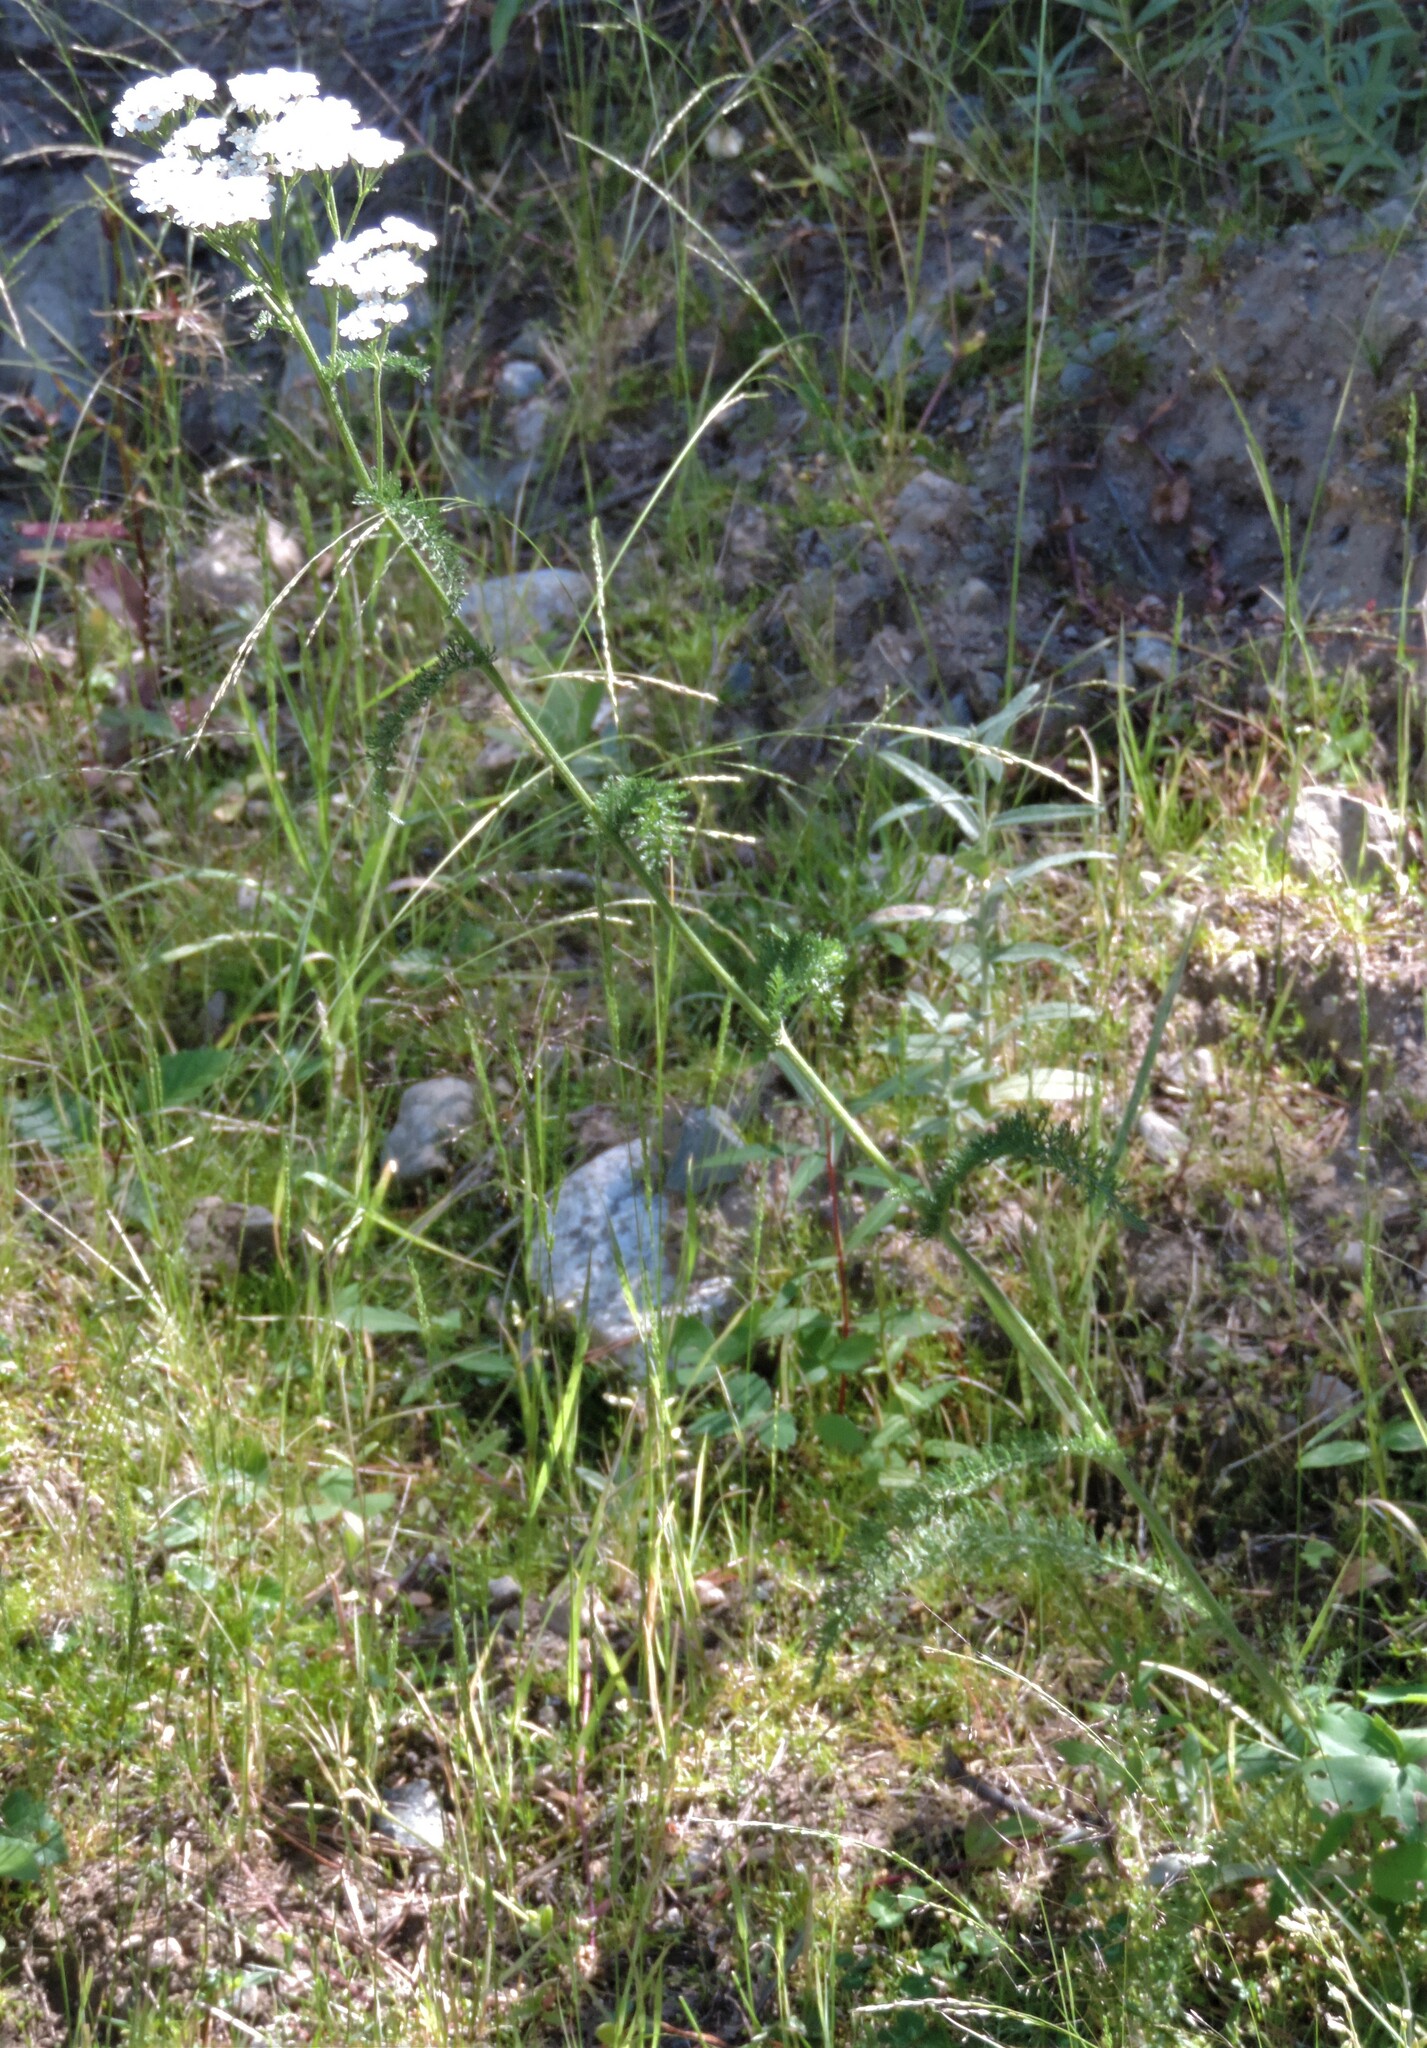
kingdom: Plantae
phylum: Tracheophyta
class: Magnoliopsida
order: Asterales
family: Asteraceae
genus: Achillea
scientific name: Achillea millefolium
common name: Yarrow
